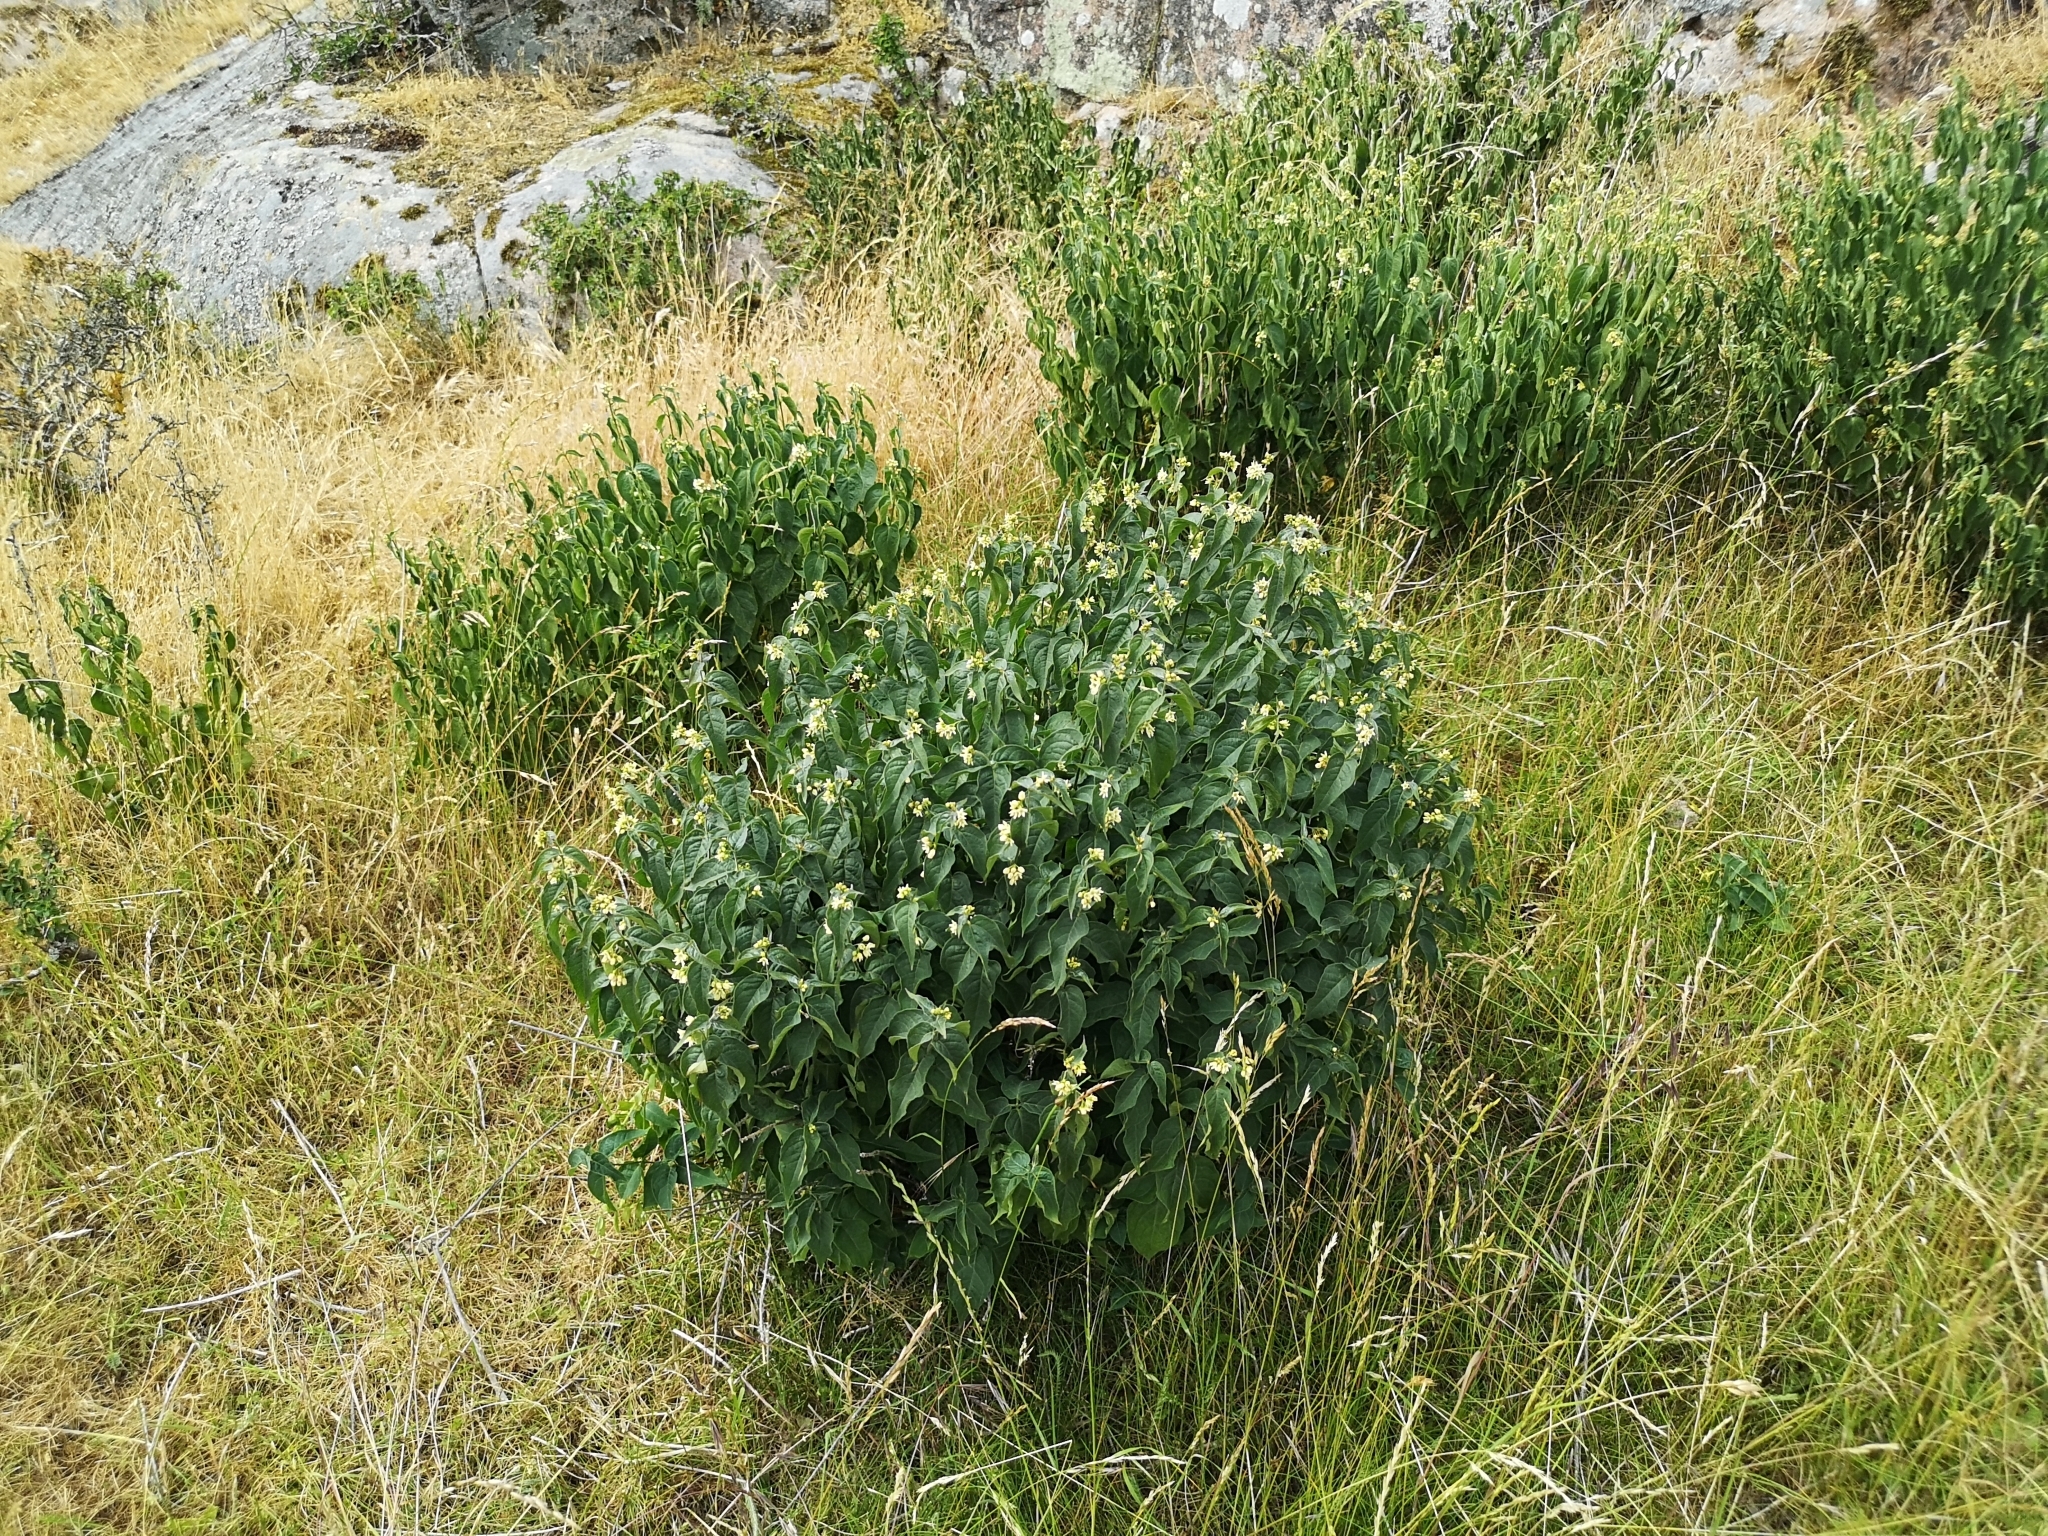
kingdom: Plantae
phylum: Tracheophyta
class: Magnoliopsida
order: Gentianales
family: Apocynaceae
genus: Vincetoxicum
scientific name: Vincetoxicum hirundinaria
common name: White swallowwort
